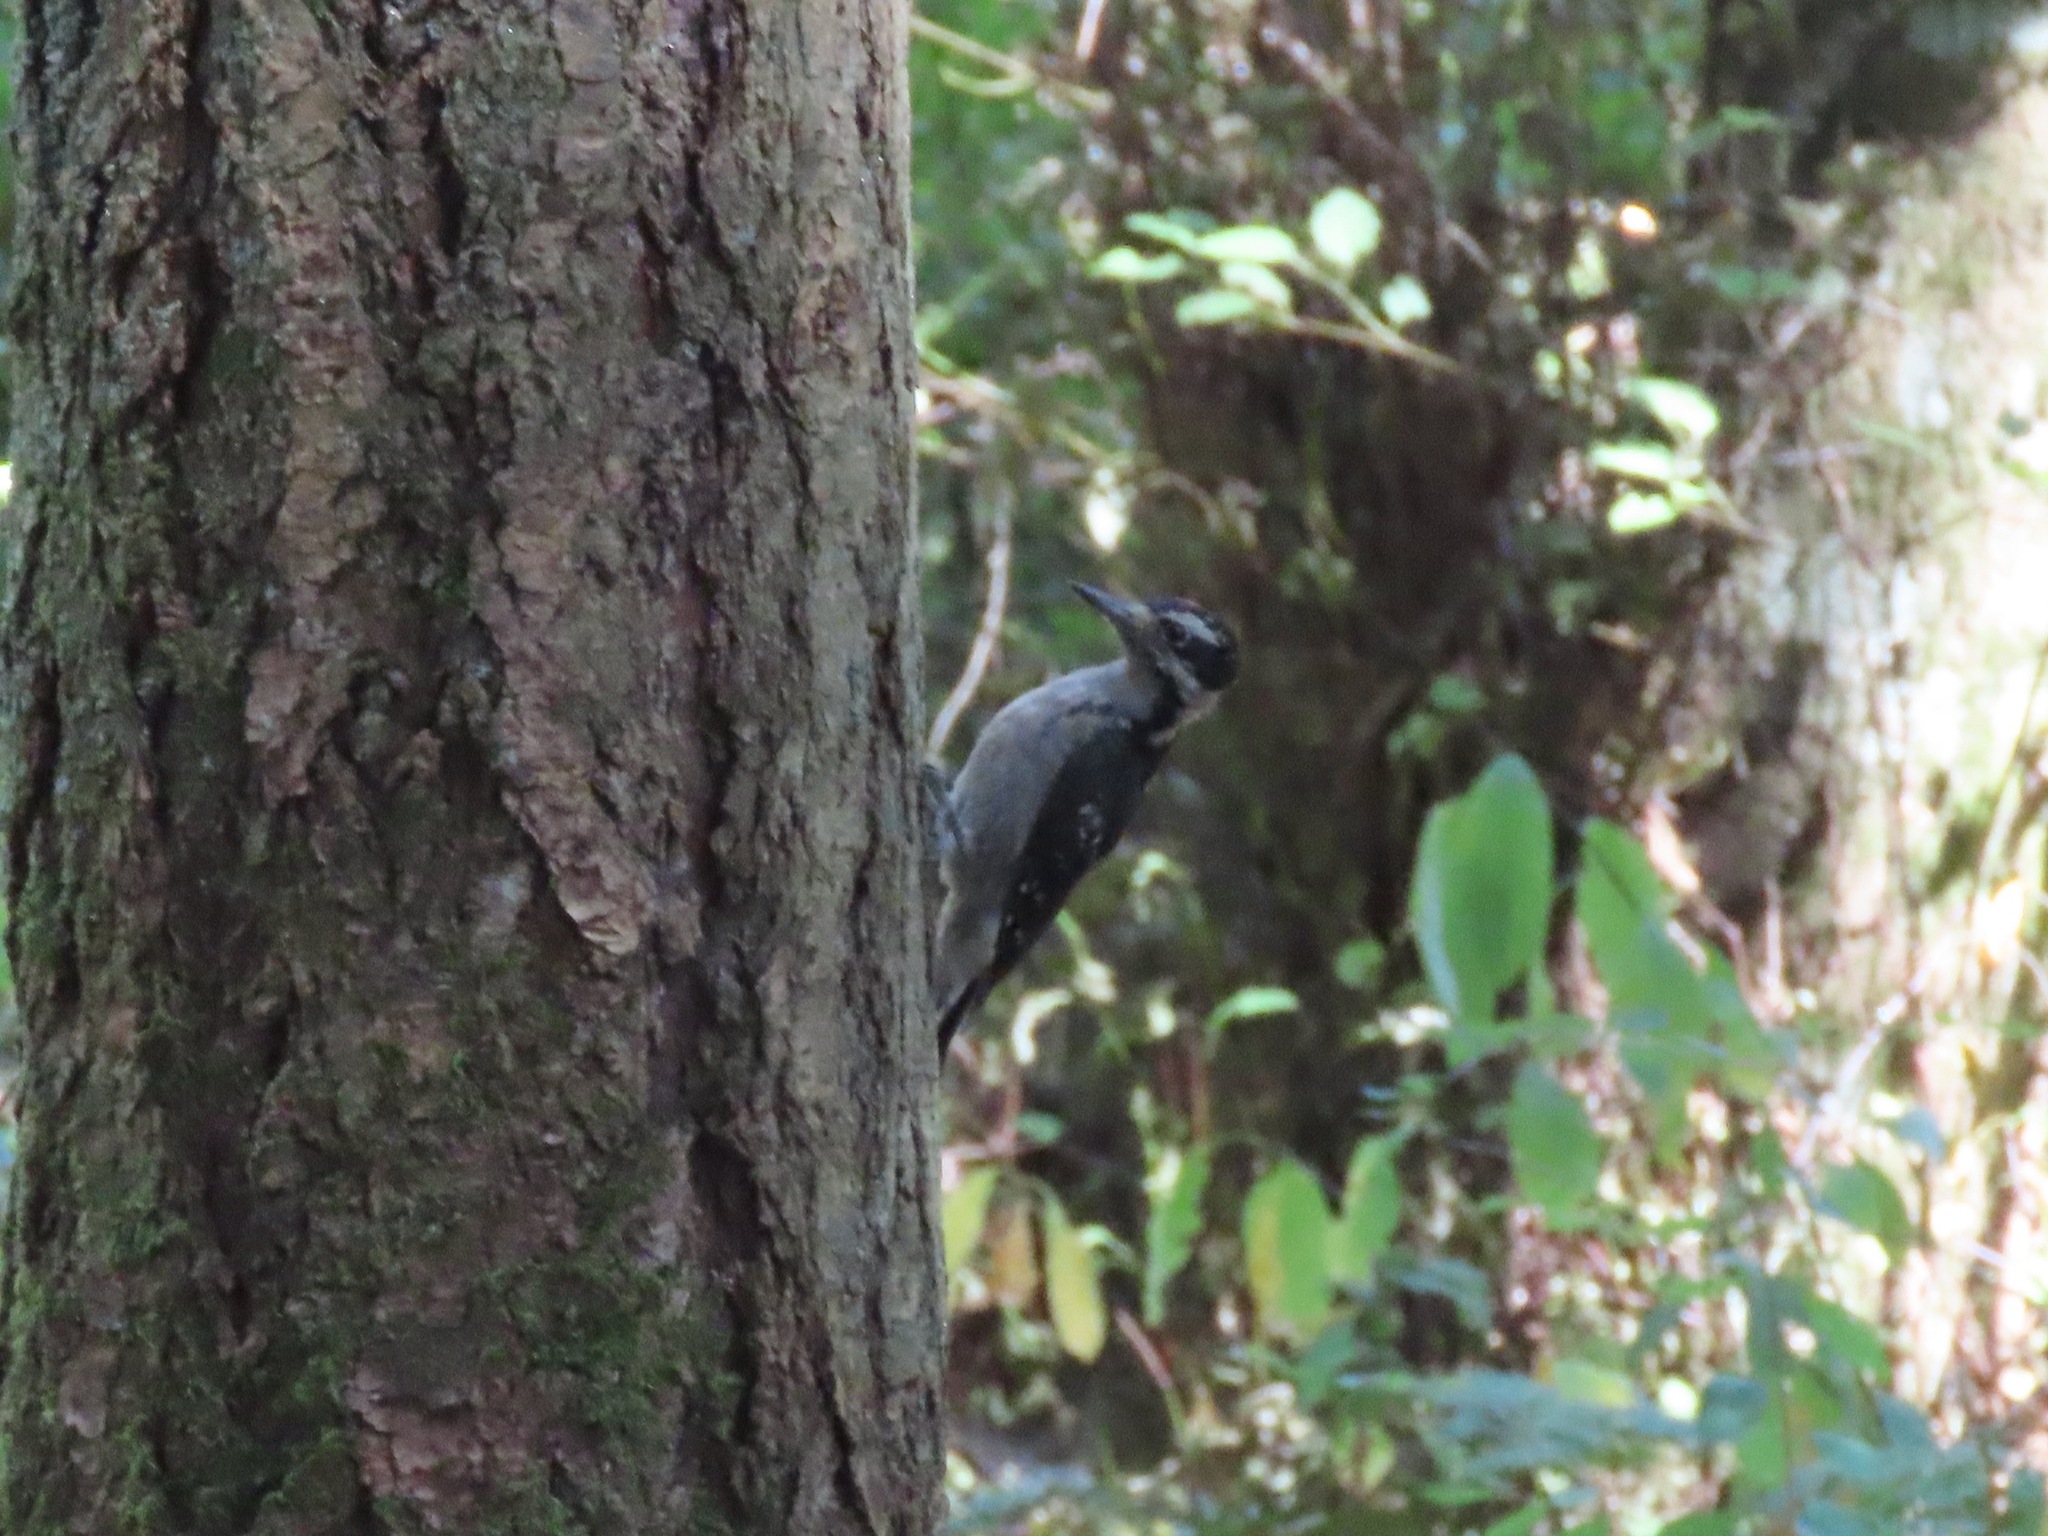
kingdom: Animalia
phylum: Chordata
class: Aves
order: Piciformes
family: Picidae
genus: Leuconotopicus
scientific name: Leuconotopicus villosus
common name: Hairy woodpecker
